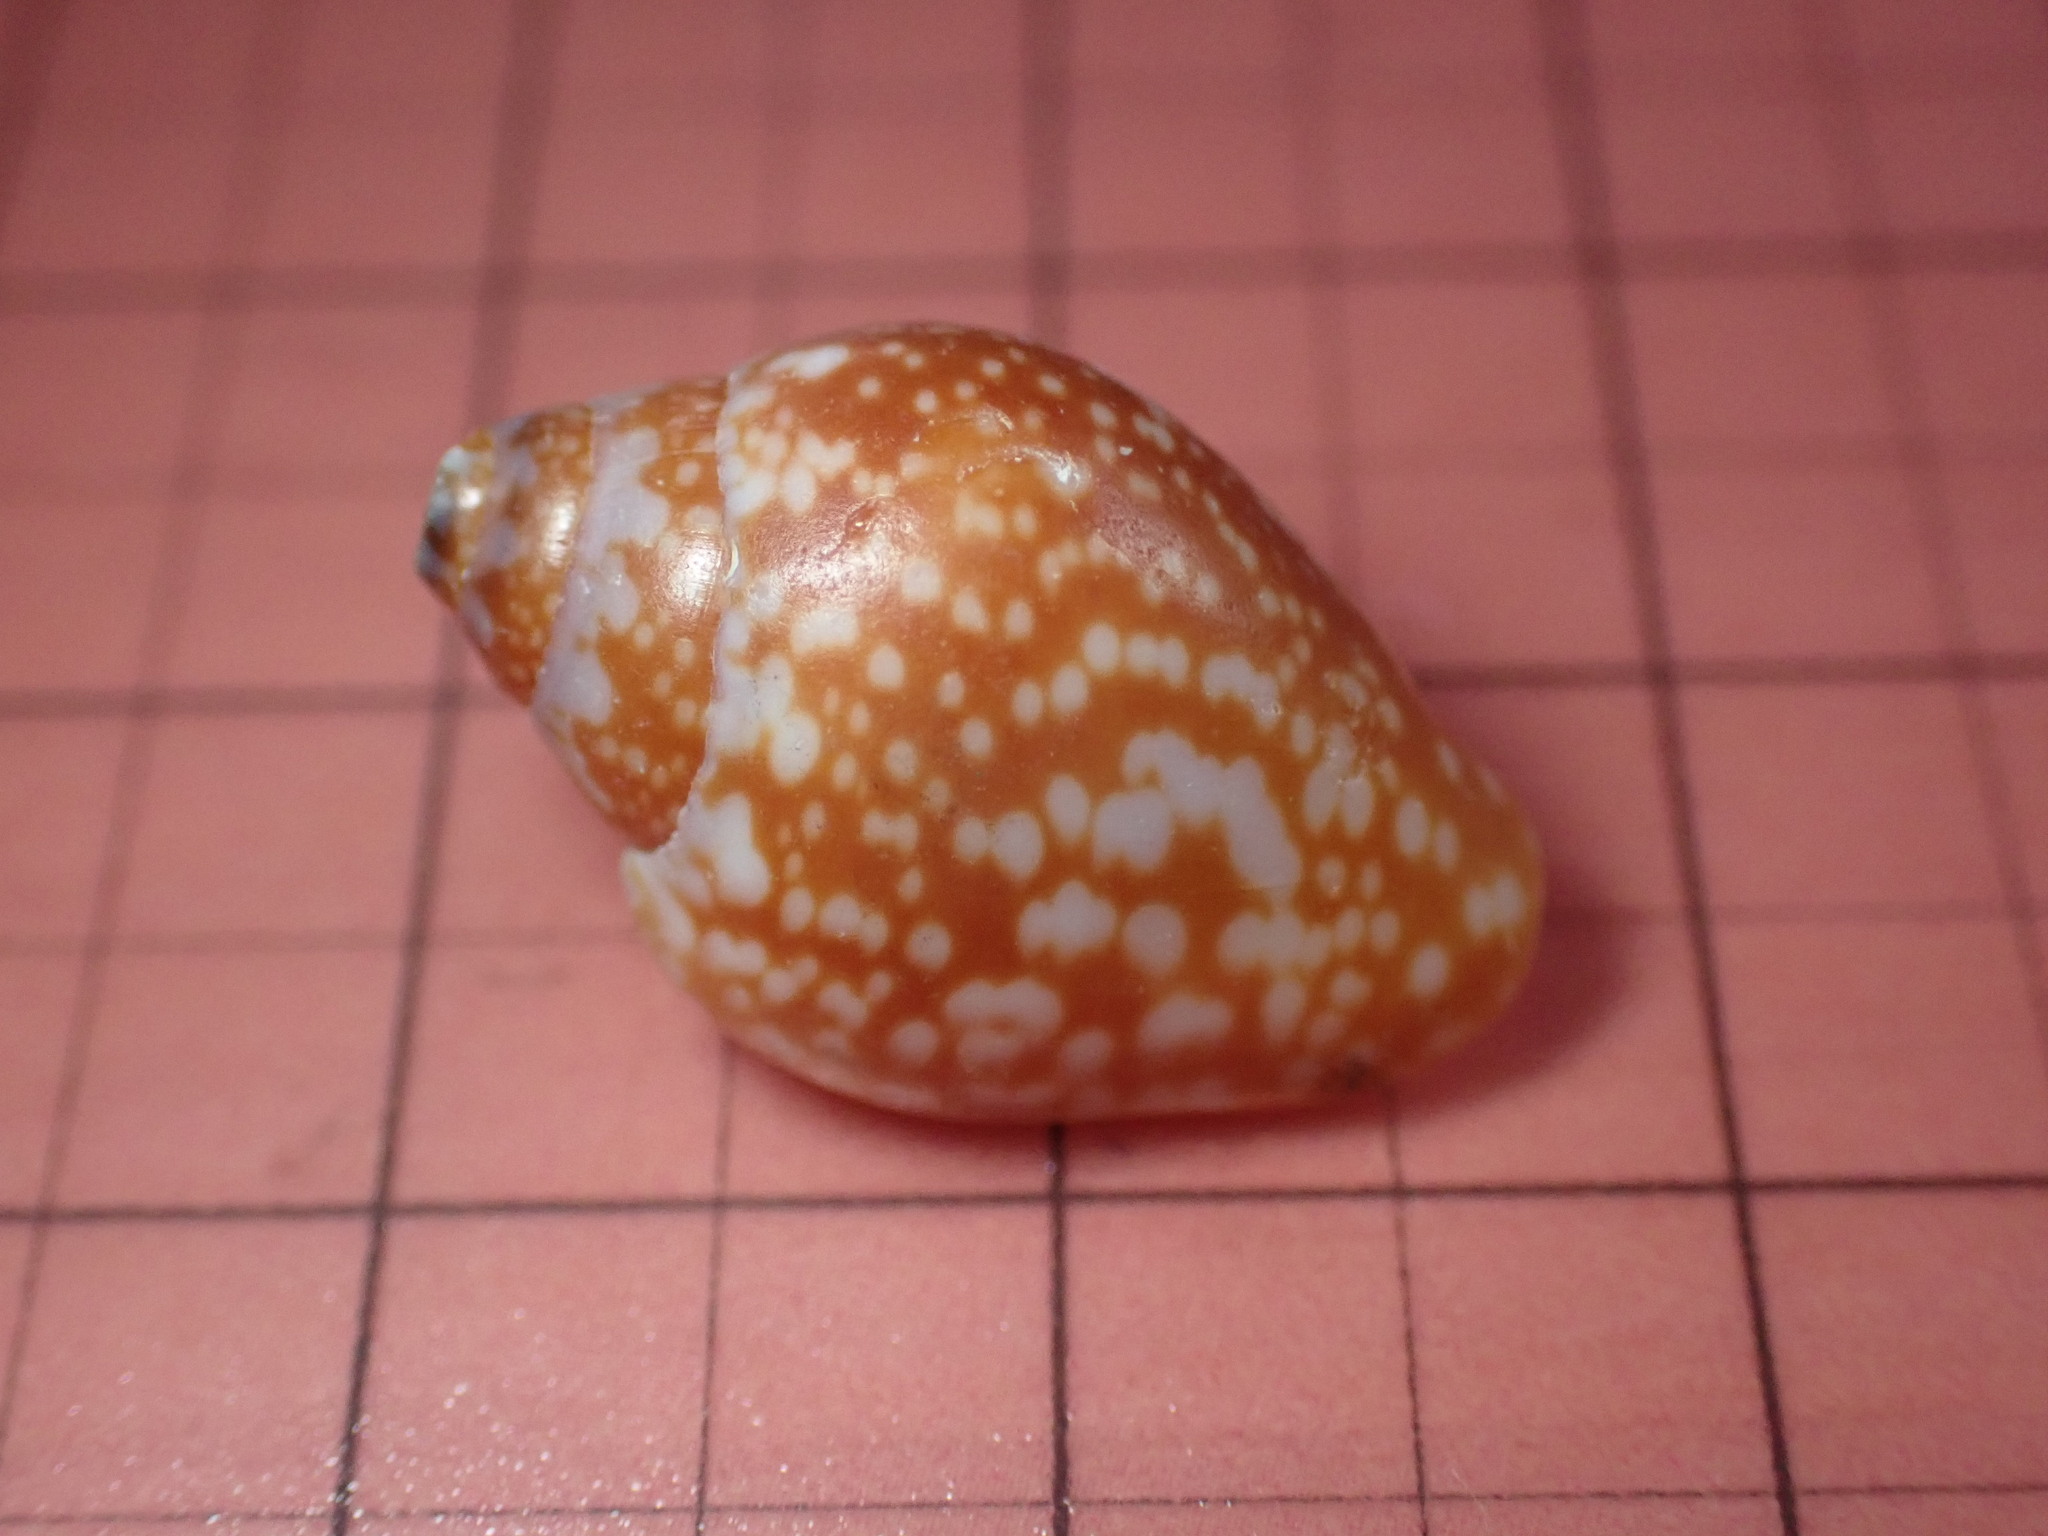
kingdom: Animalia
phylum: Mollusca
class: Gastropoda
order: Neogastropoda
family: Columbellidae
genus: Columbella
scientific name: Columbella fuscata
